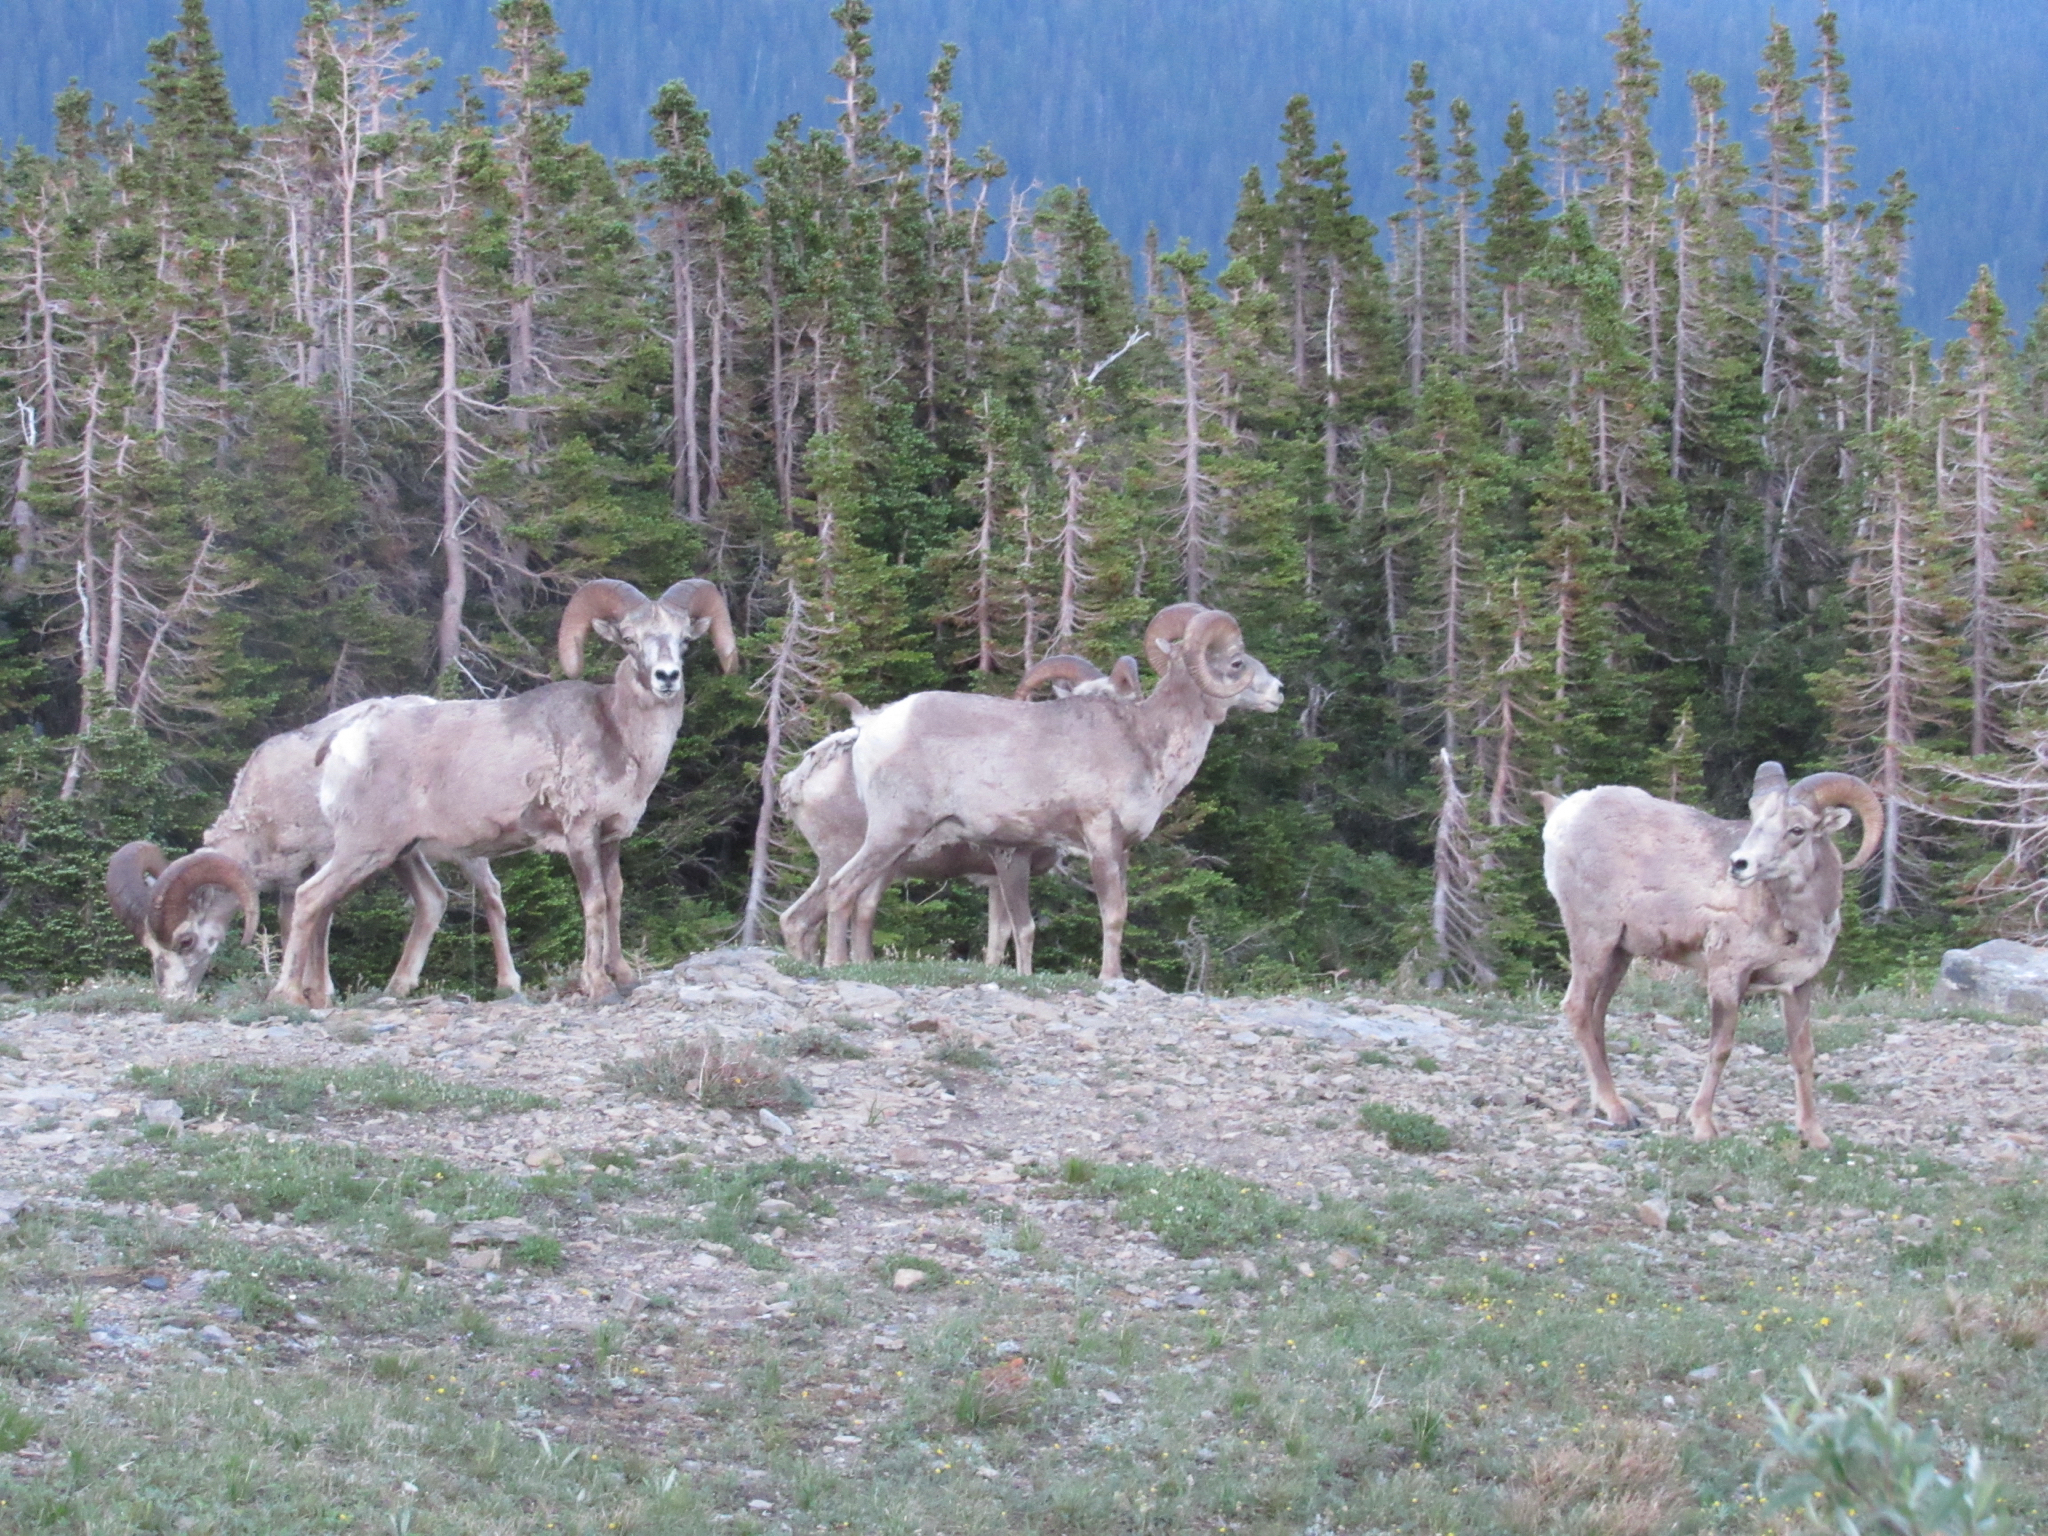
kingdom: Animalia
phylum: Chordata
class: Mammalia
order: Artiodactyla
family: Bovidae
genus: Ovis
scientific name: Ovis canadensis
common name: Bighorn sheep
